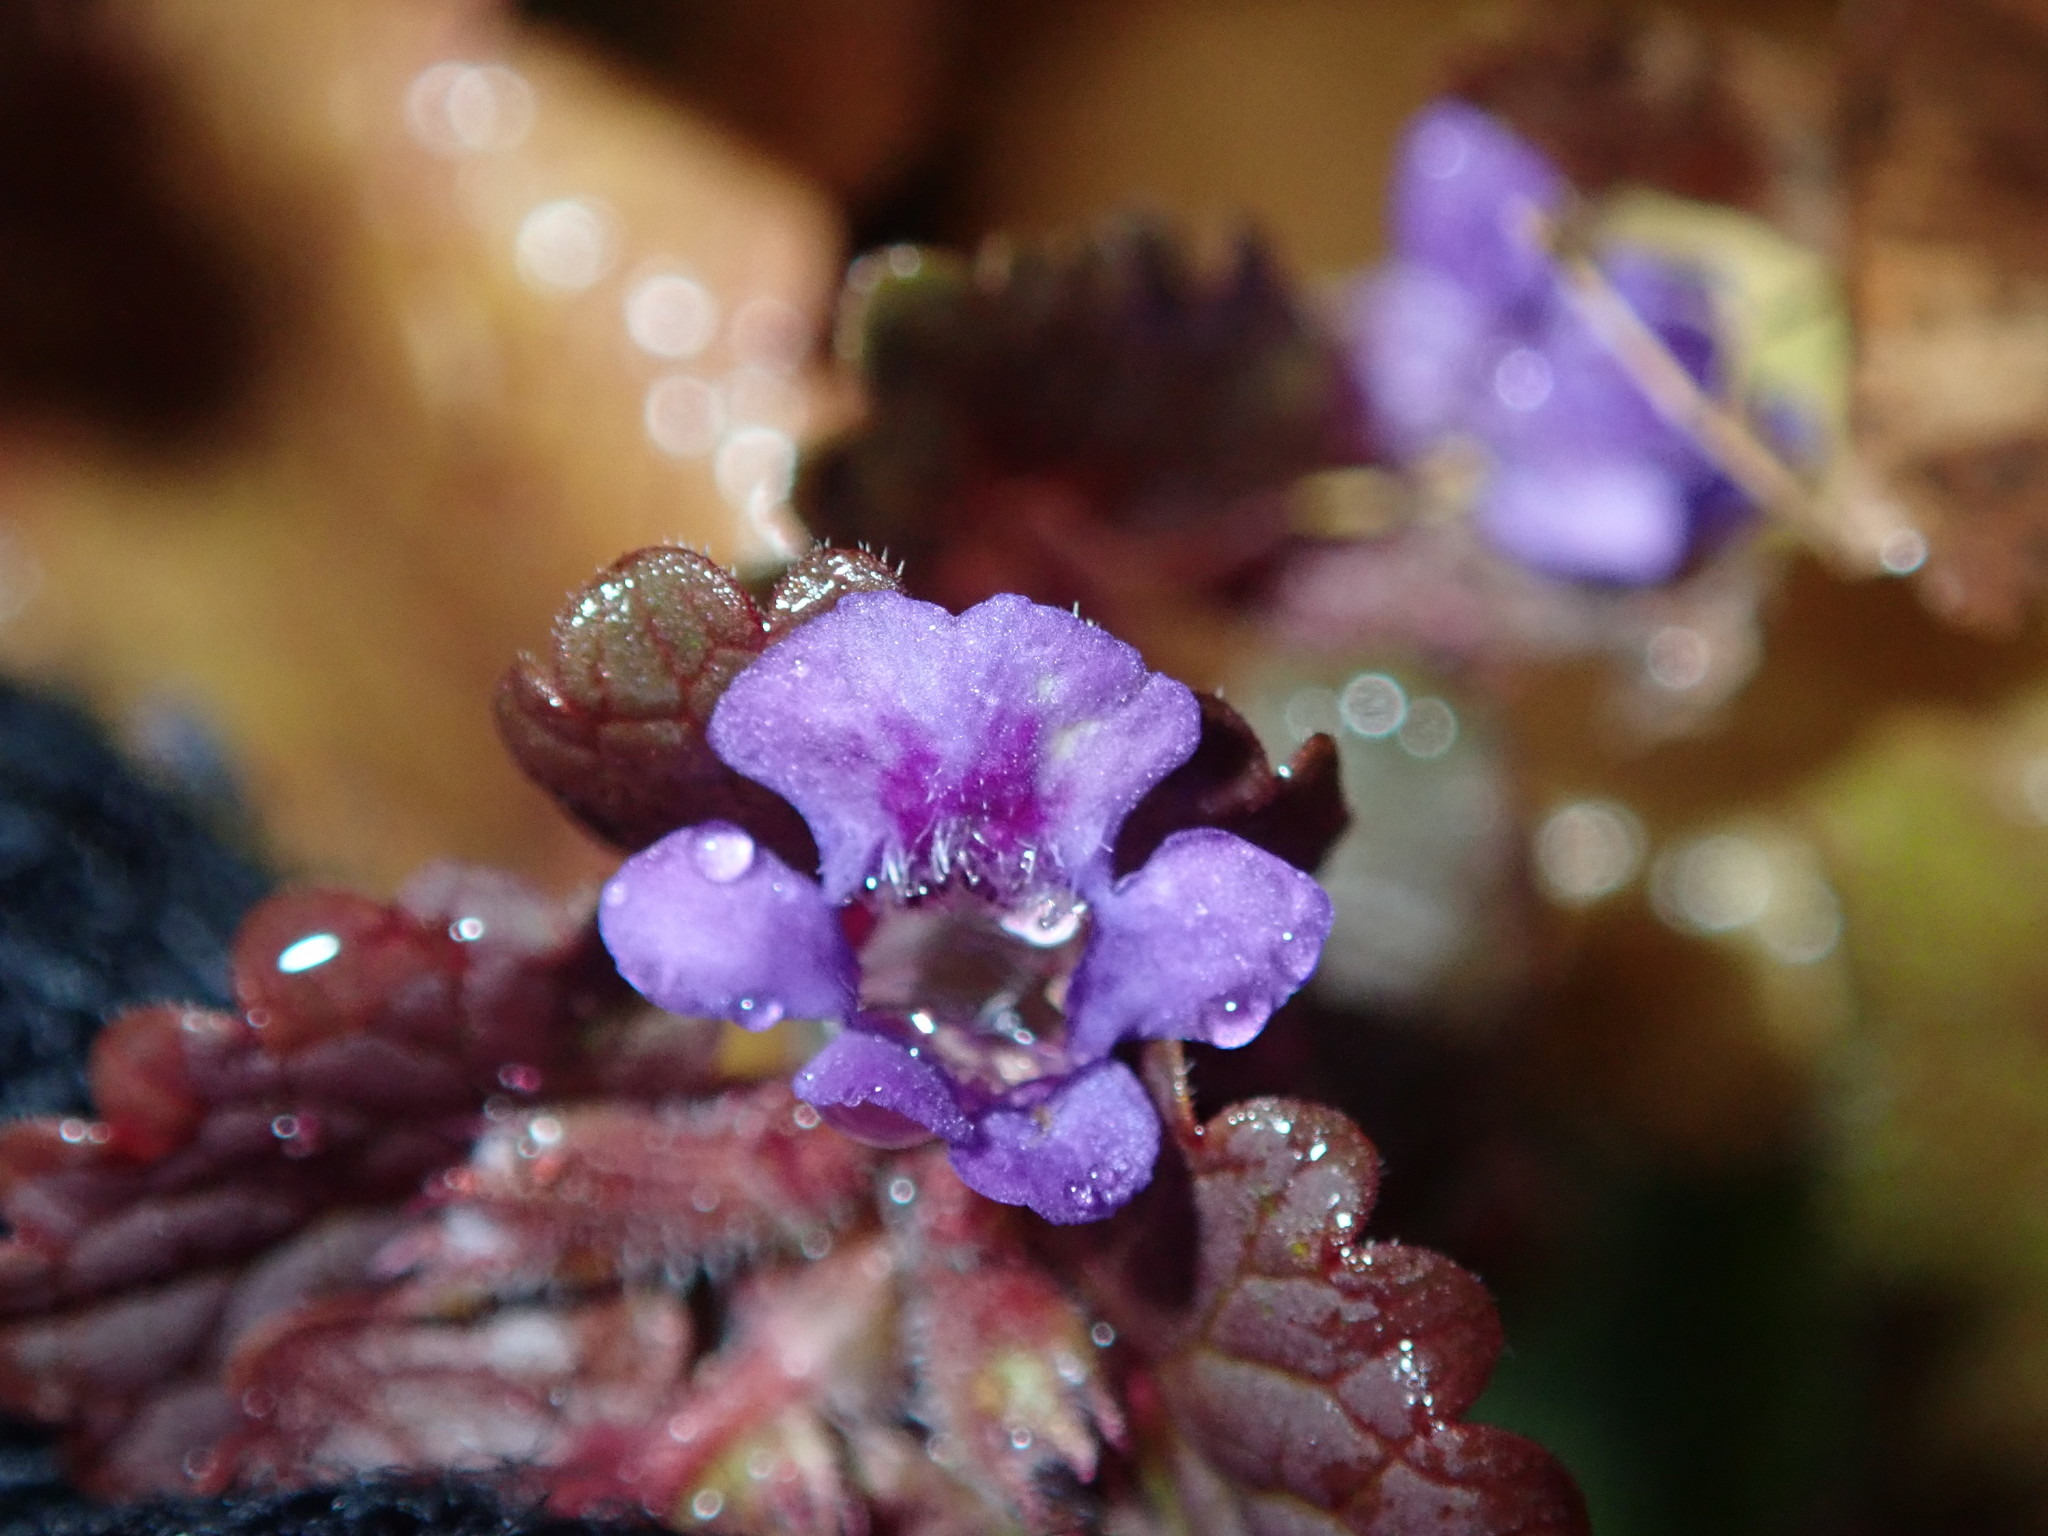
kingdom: Plantae
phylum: Tracheophyta
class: Magnoliopsida
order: Lamiales
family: Lamiaceae
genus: Glechoma
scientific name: Glechoma hederacea
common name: Ground ivy
